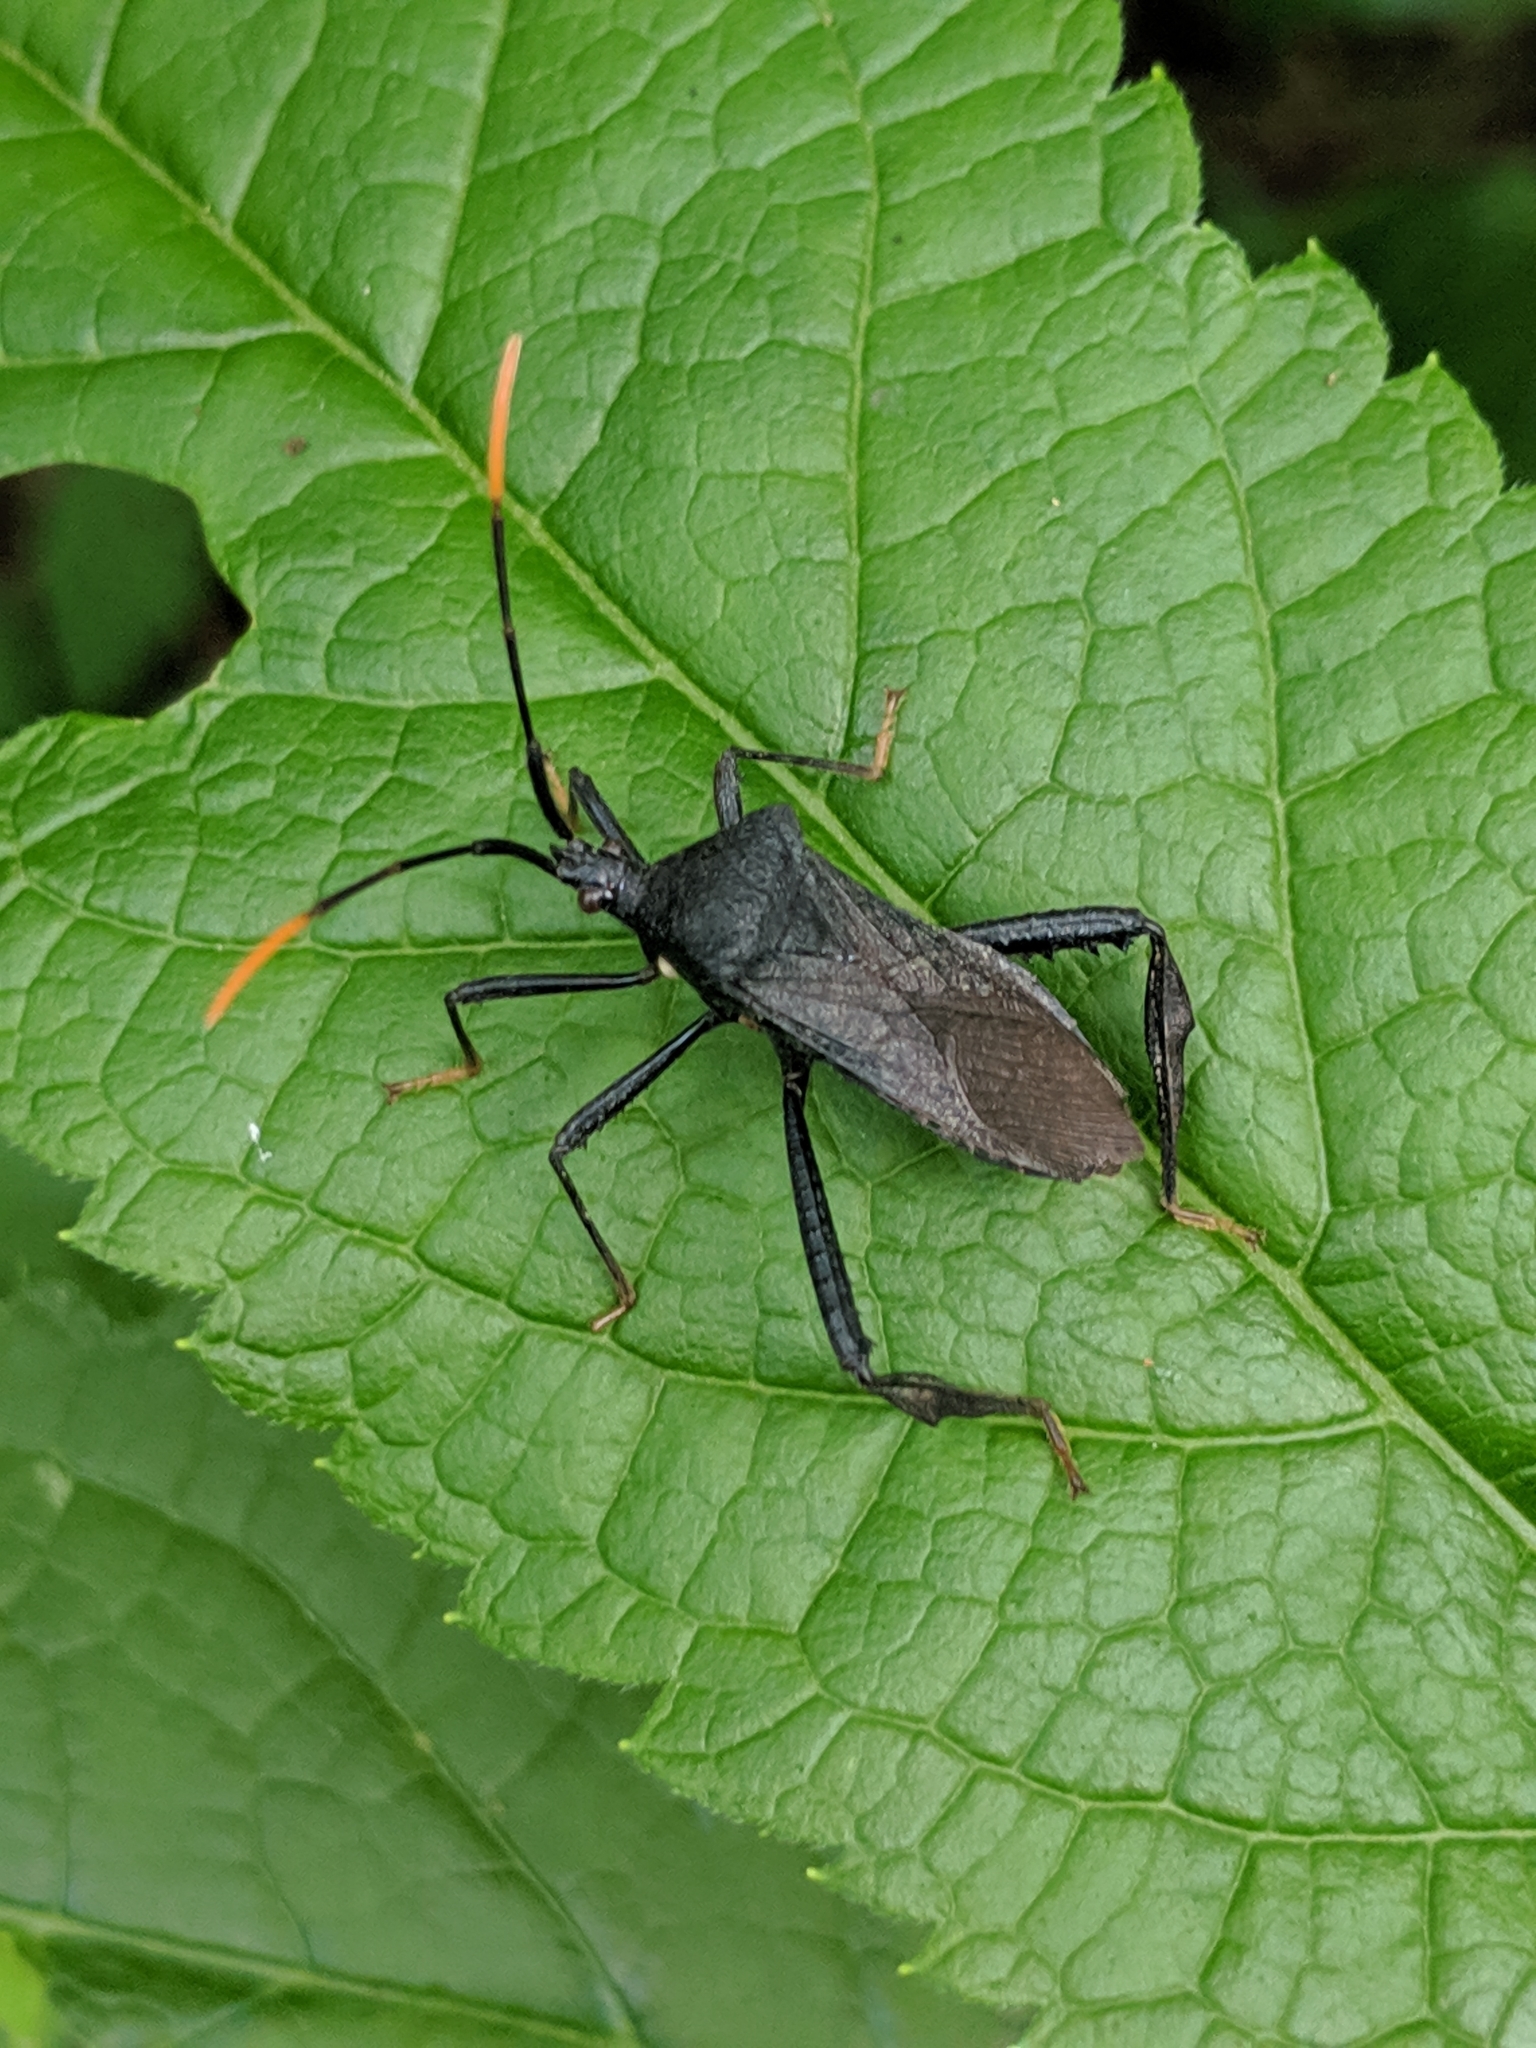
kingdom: Animalia
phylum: Arthropoda
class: Insecta
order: Hemiptera
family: Coreidae
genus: Acanthocephala
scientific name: Acanthocephala terminalis
